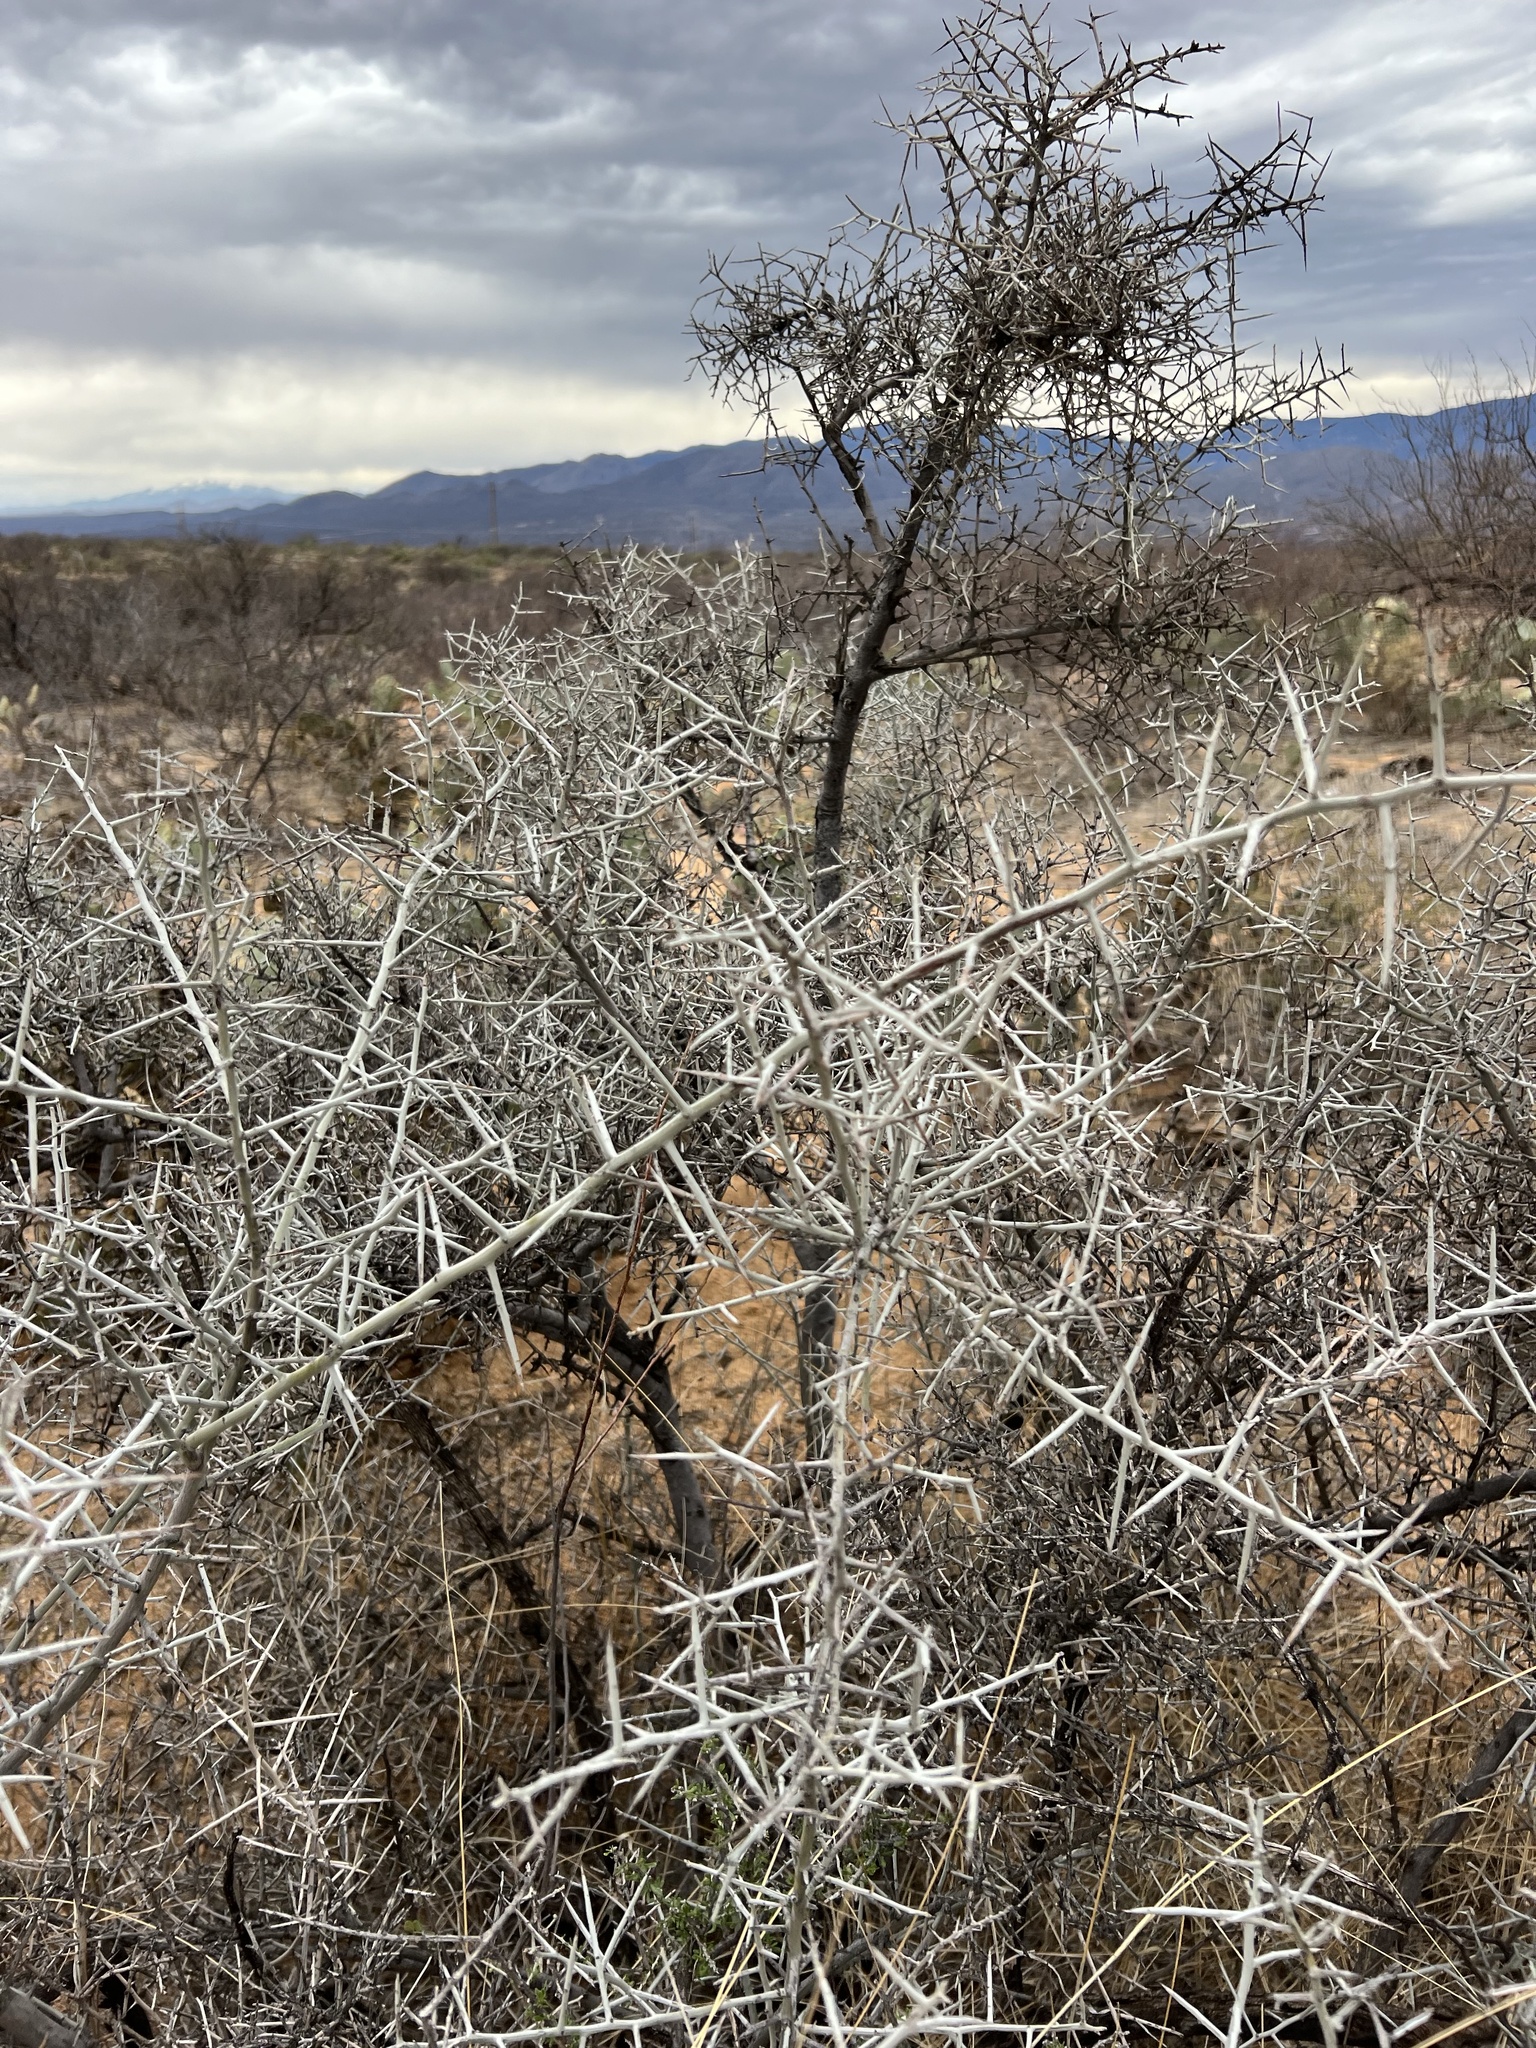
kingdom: Plantae
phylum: Tracheophyta
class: Magnoliopsida
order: Rosales
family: Rhamnaceae
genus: Sarcomphalus
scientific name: Sarcomphalus obtusifolius
